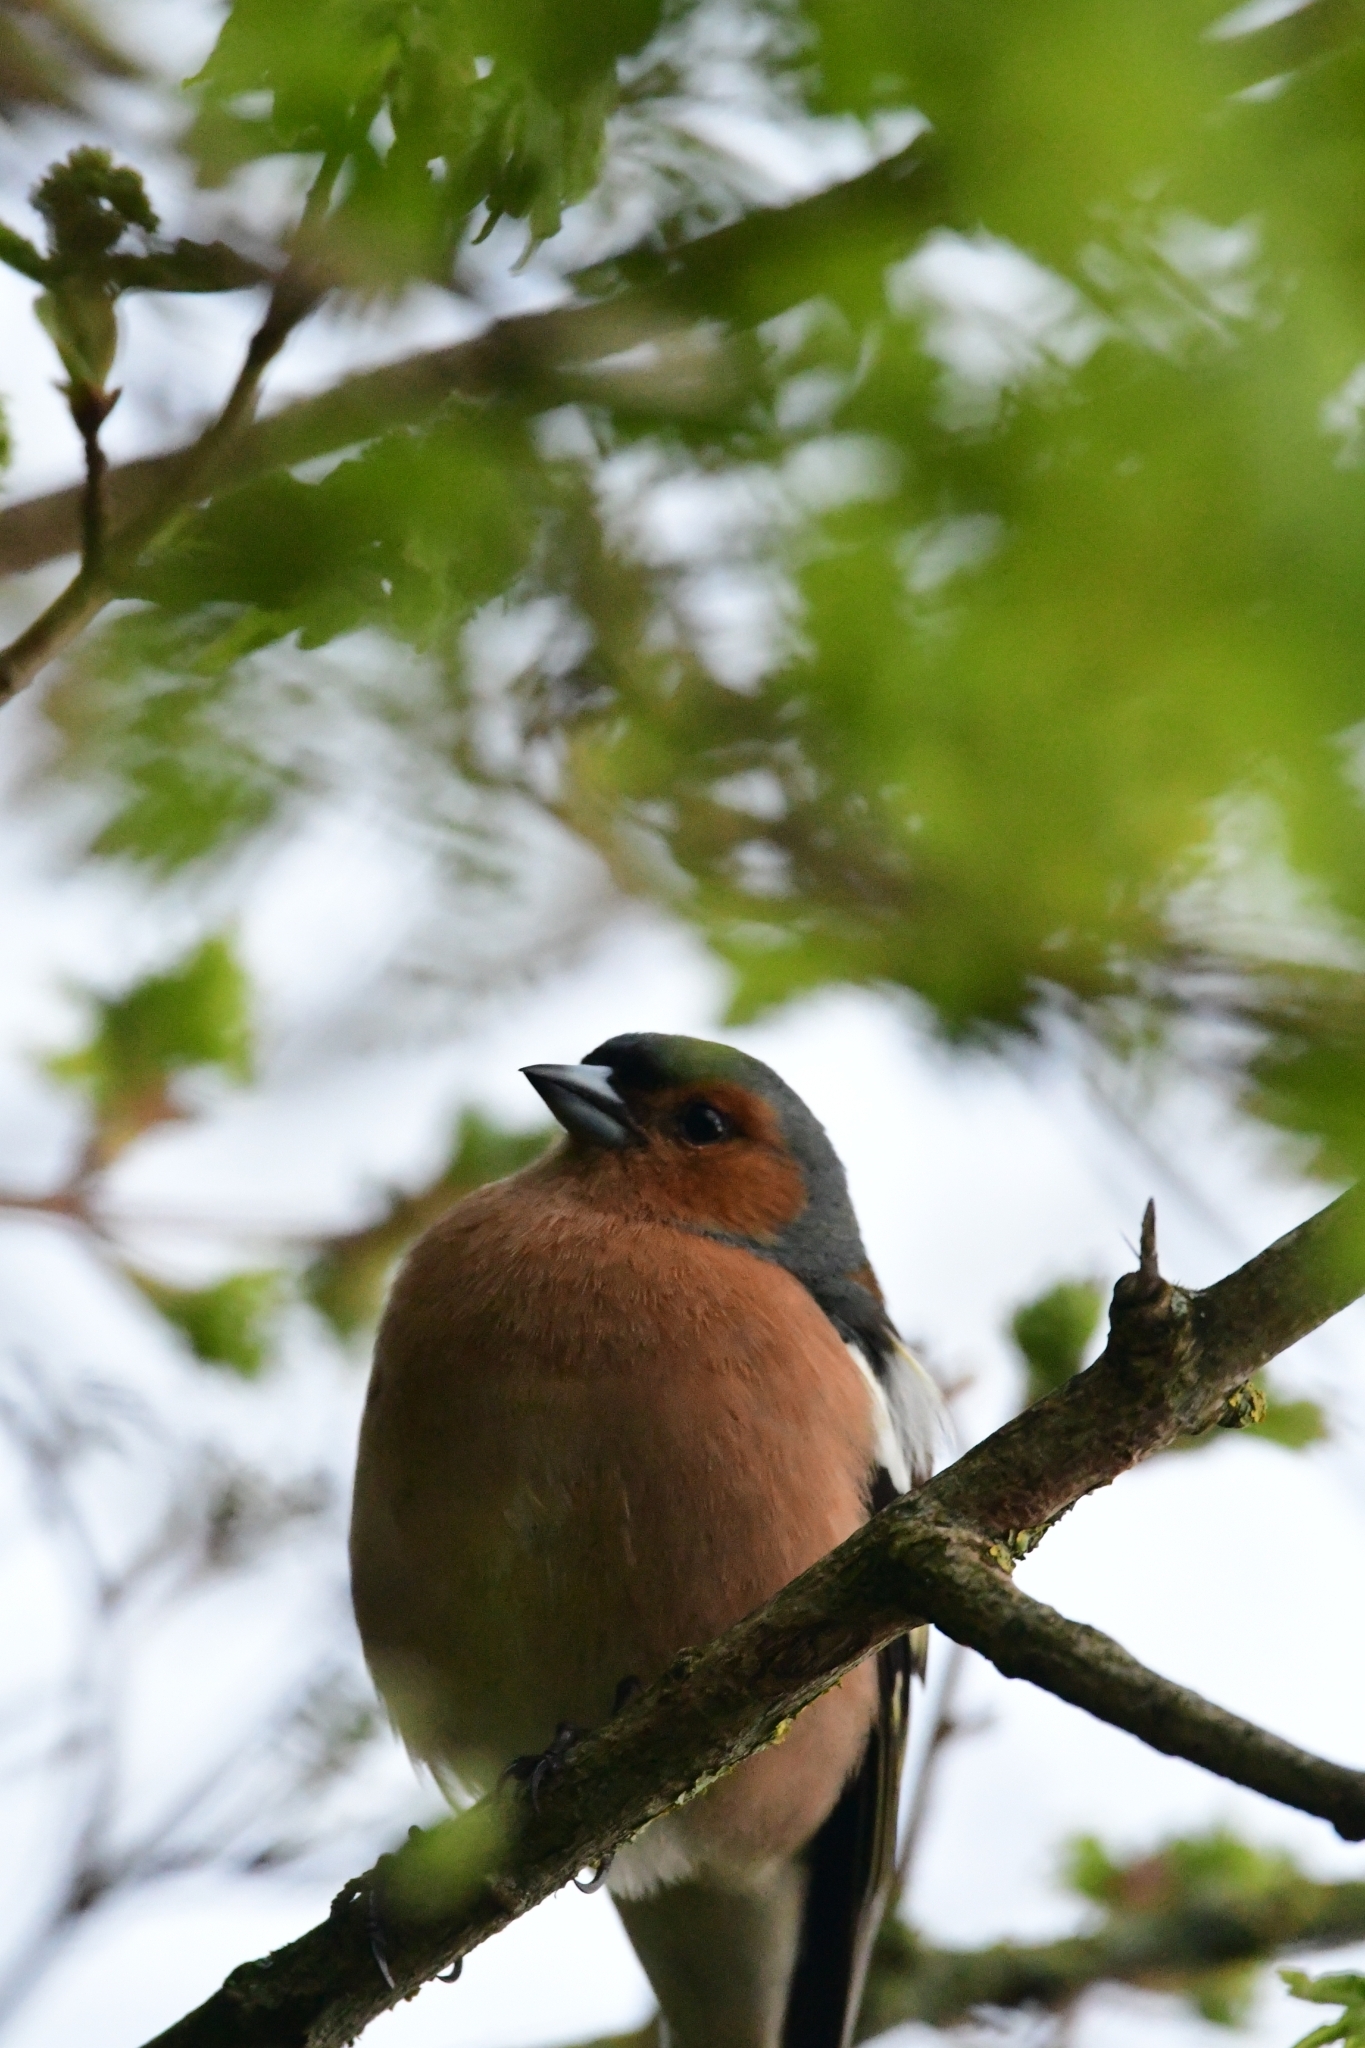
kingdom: Animalia
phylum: Chordata
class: Aves
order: Passeriformes
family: Fringillidae
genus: Fringilla
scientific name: Fringilla coelebs
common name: Common chaffinch
